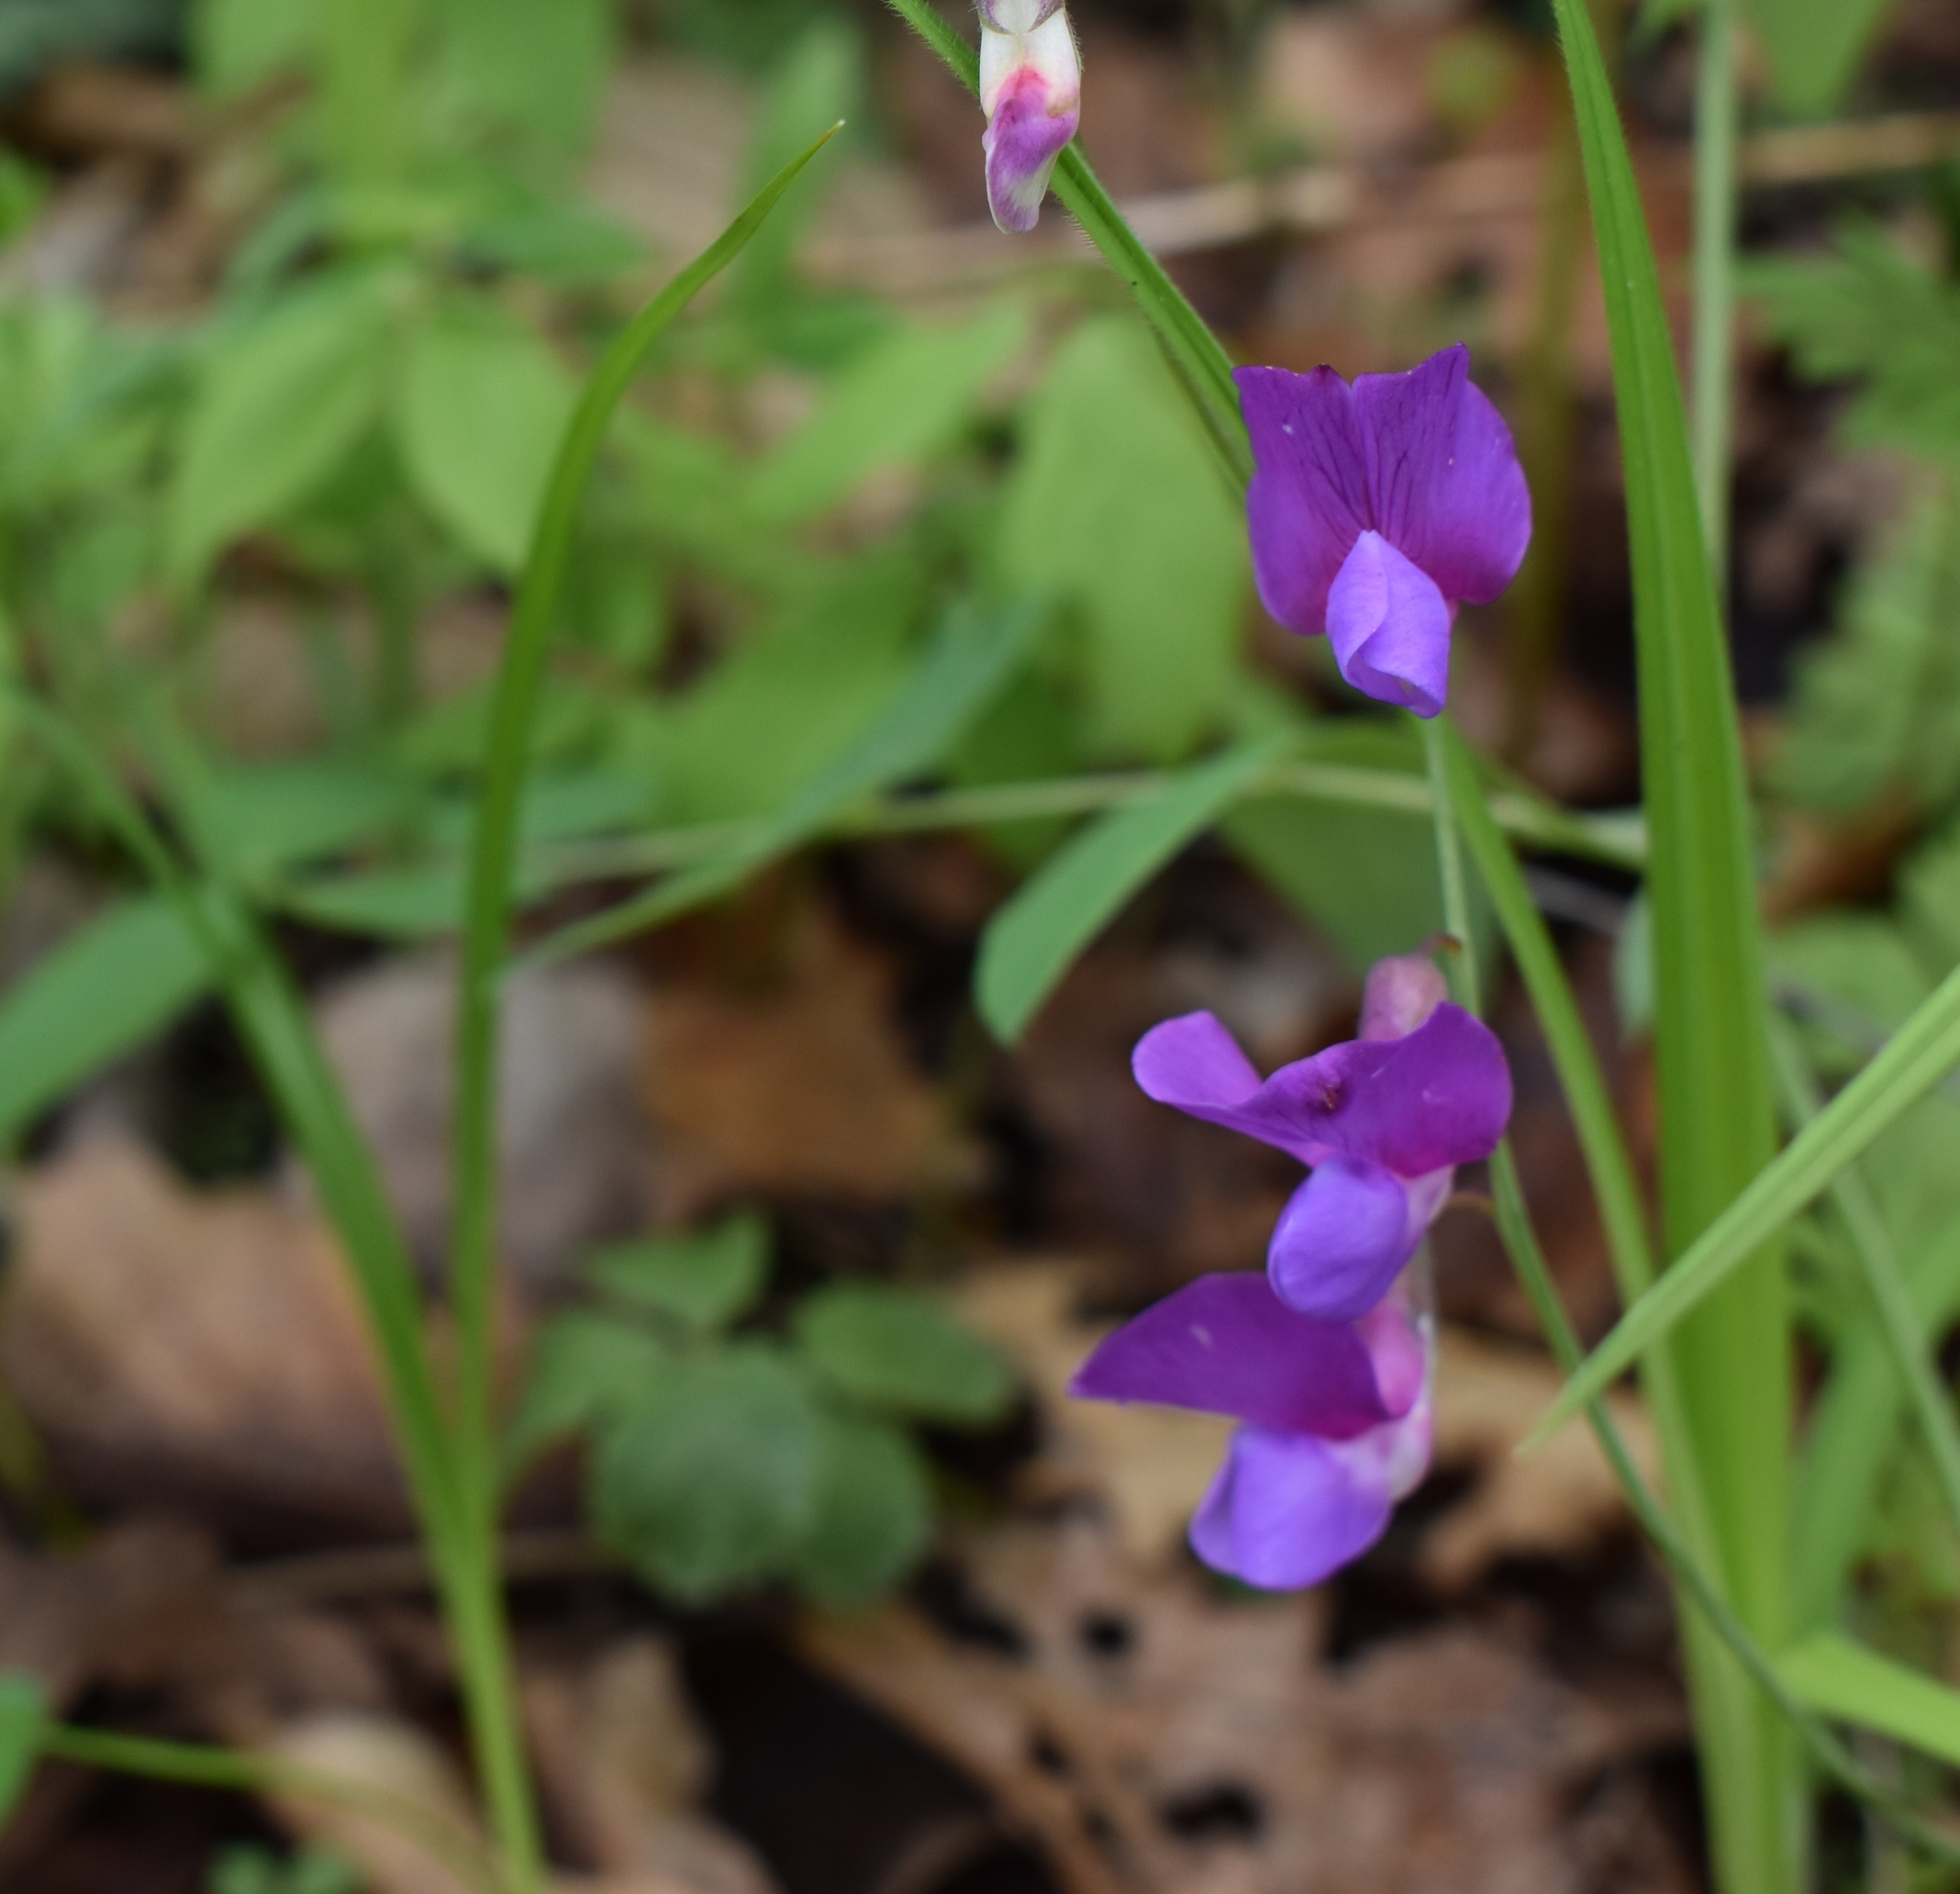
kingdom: Plantae
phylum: Tracheophyta
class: Magnoliopsida
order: Fabales
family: Fabaceae
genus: Lathyrus
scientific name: Lathyrus humilis
